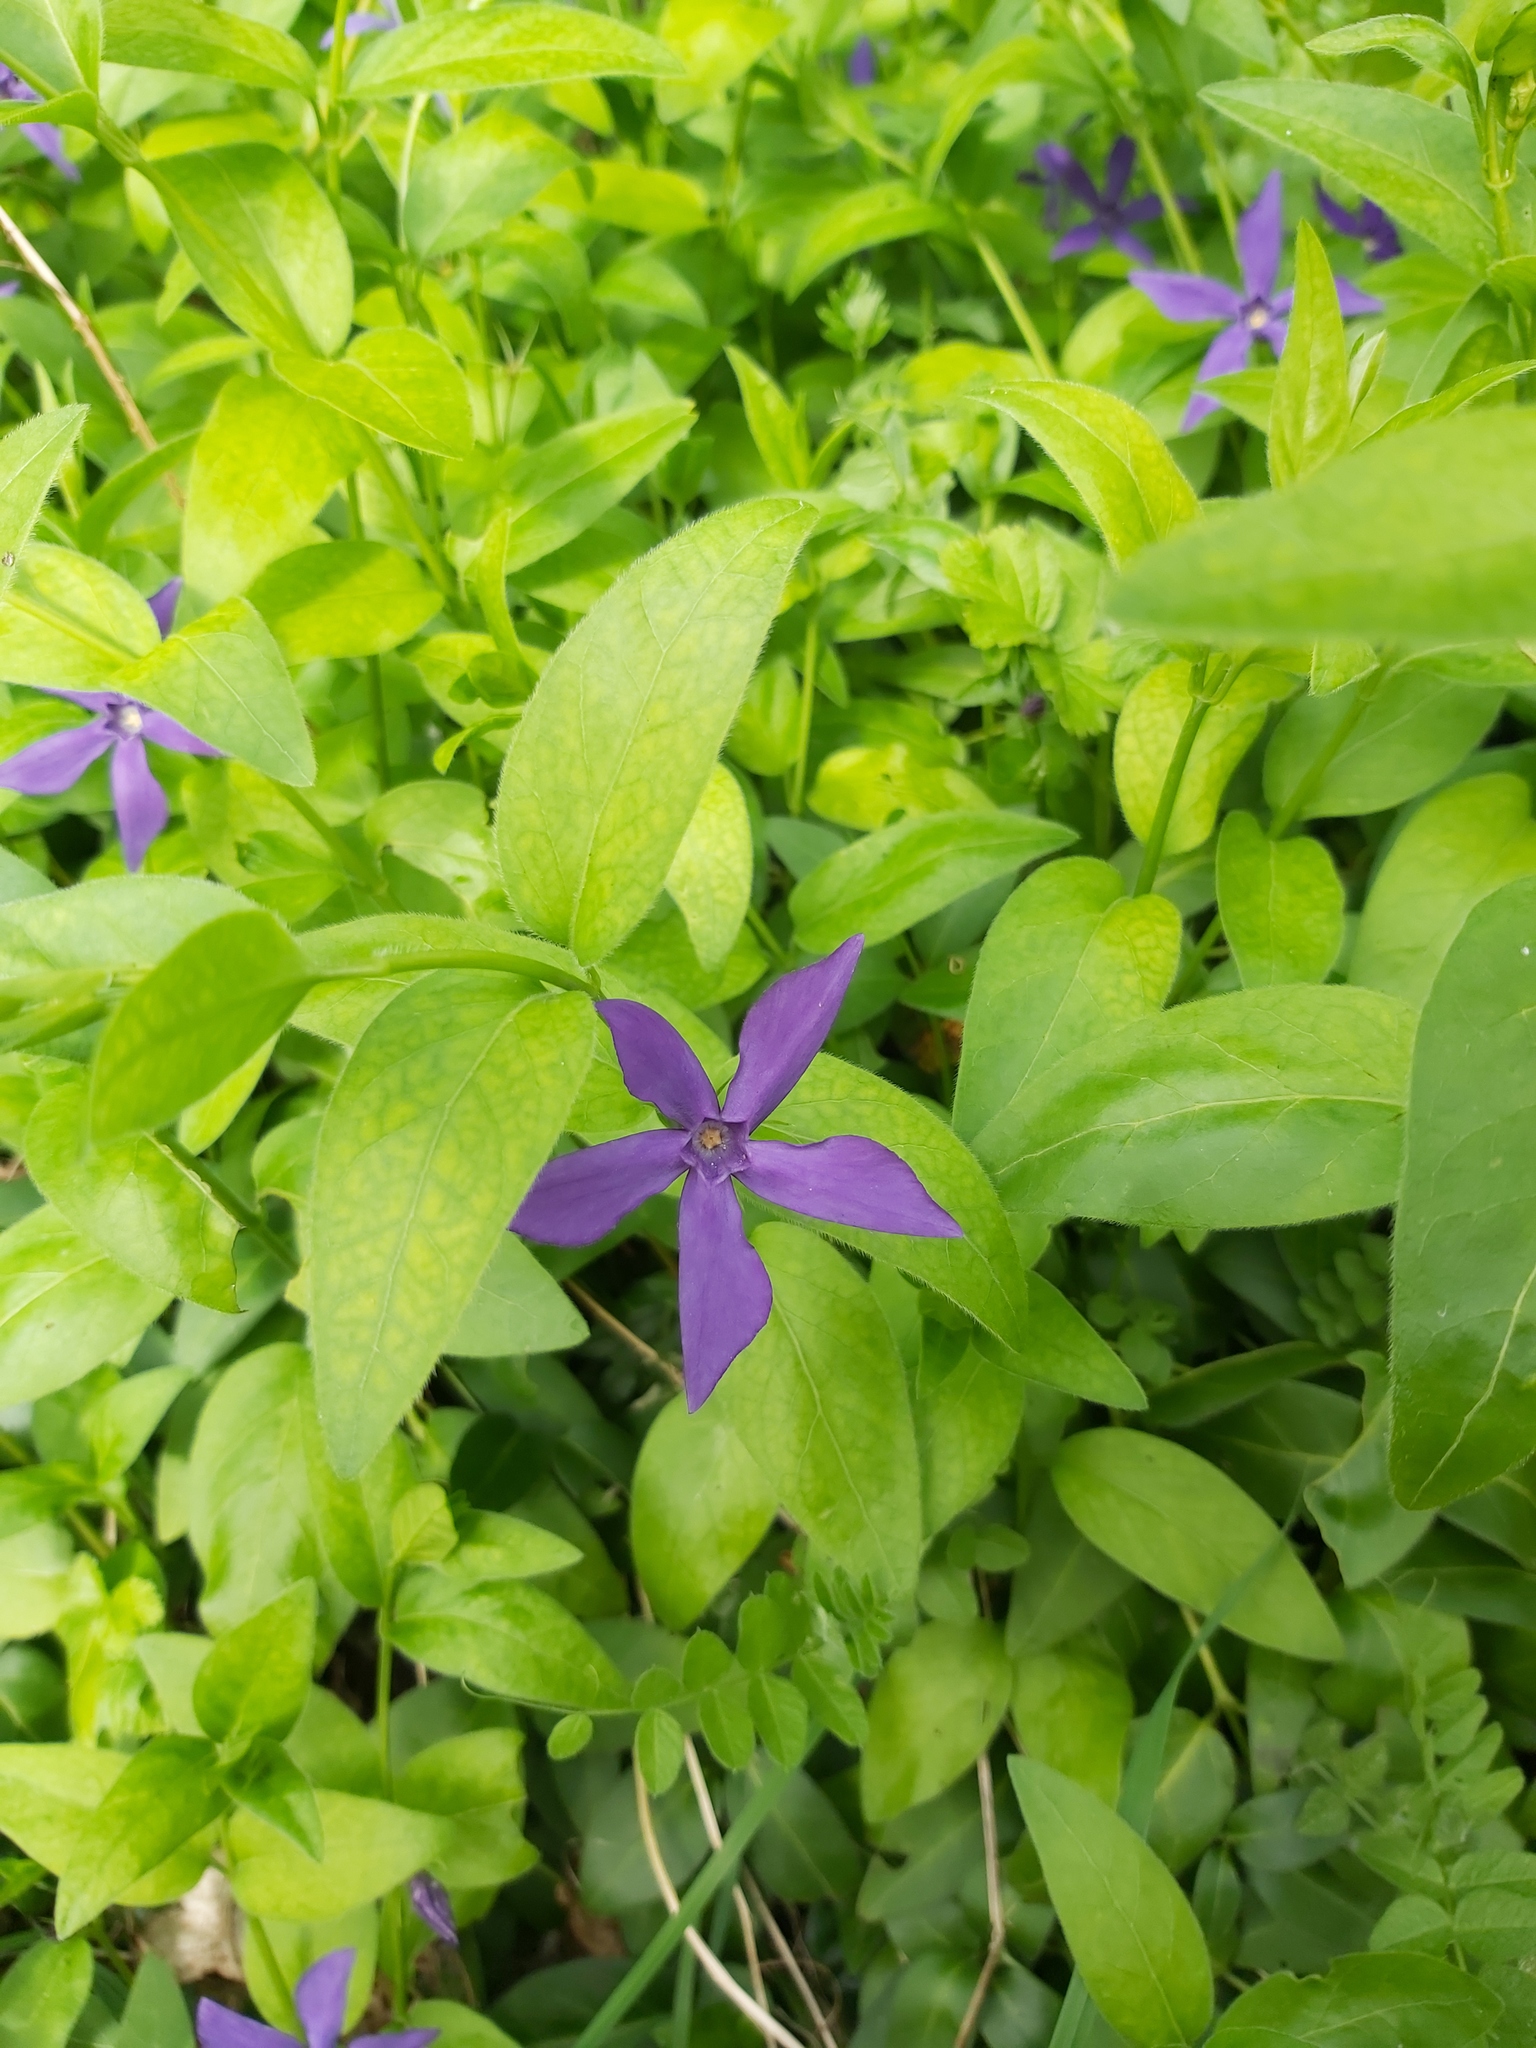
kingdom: Plantae
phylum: Tracheophyta
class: Magnoliopsida
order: Gentianales
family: Apocynaceae
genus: Vinca
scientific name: Vinca major
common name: Greater periwinkle
